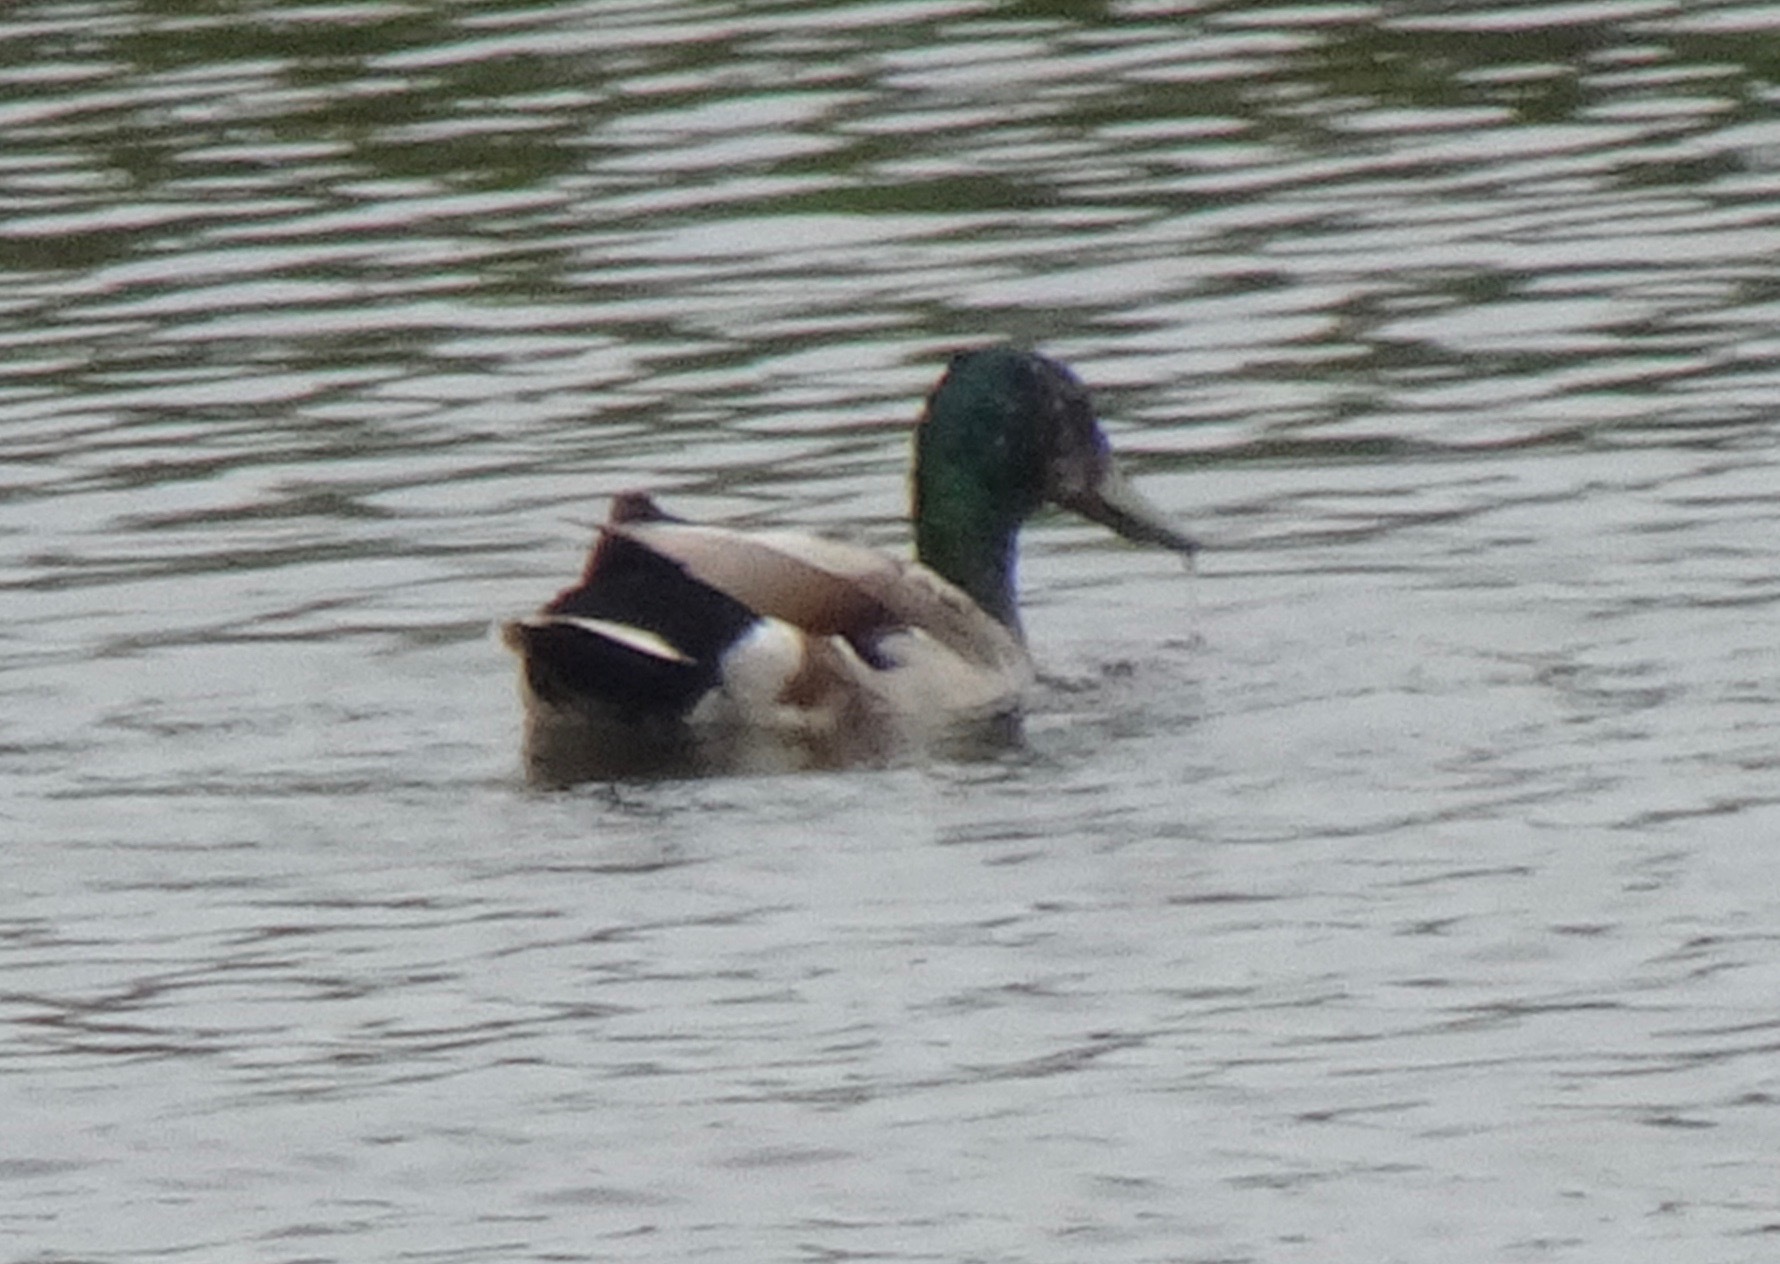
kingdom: Animalia
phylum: Chordata
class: Aves
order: Anseriformes
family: Anatidae
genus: Anas
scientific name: Anas platyrhynchos
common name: Mallard
